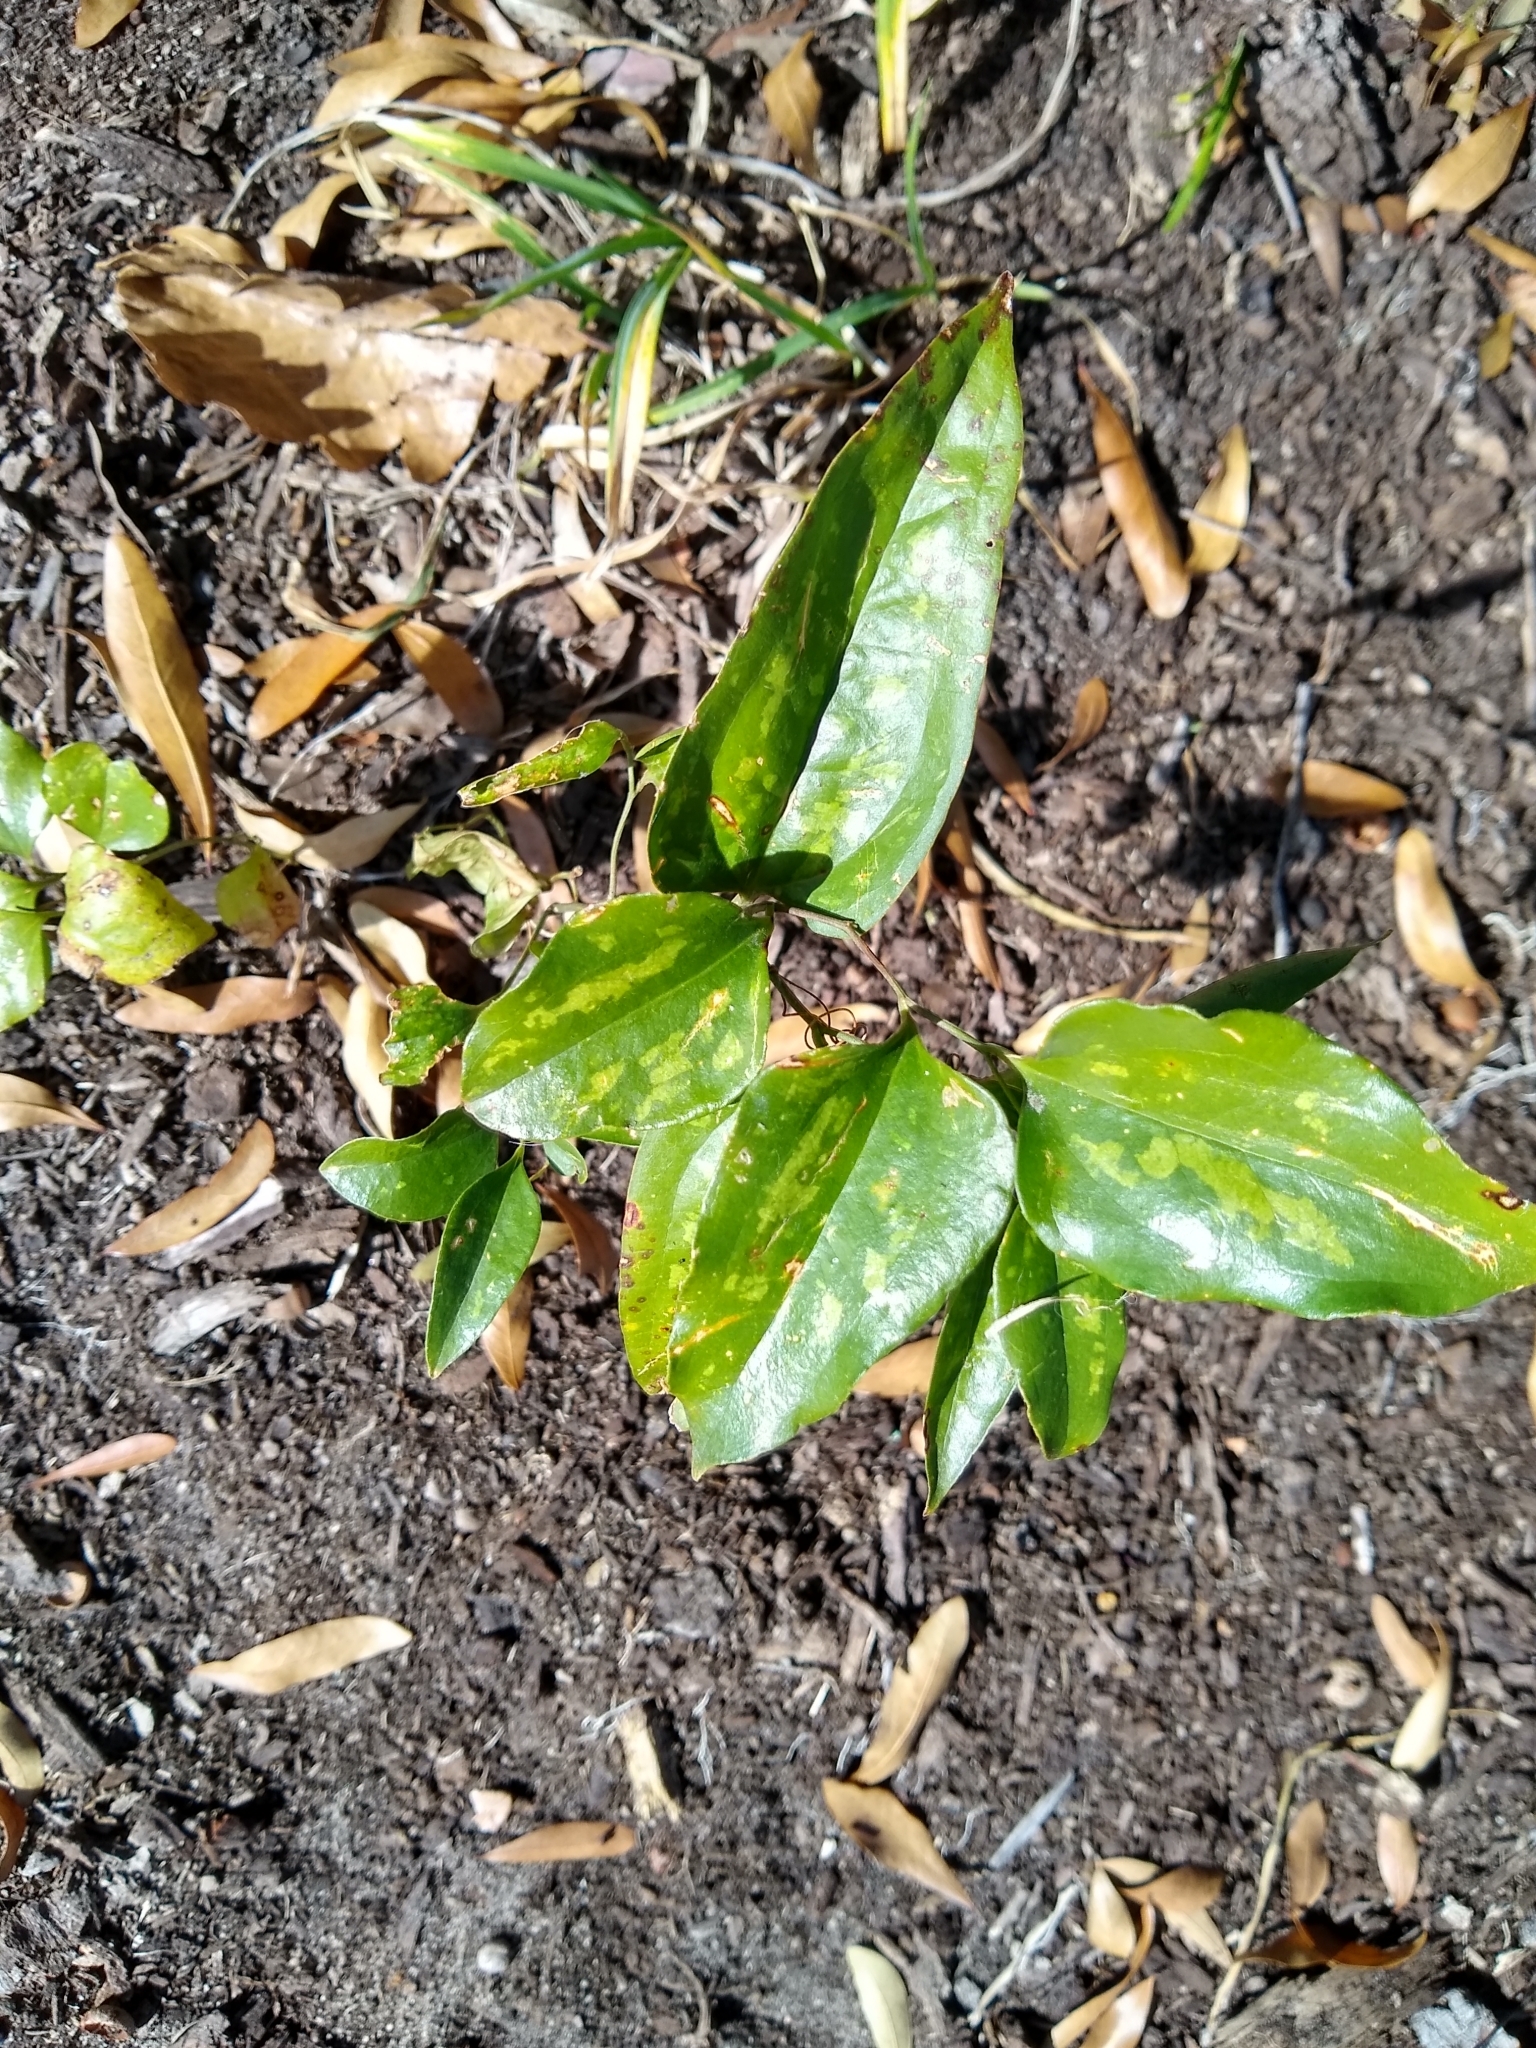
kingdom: Plantae
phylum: Tracheophyta
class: Liliopsida
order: Liliales
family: Smilacaceae
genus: Smilax
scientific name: Smilax maritima
